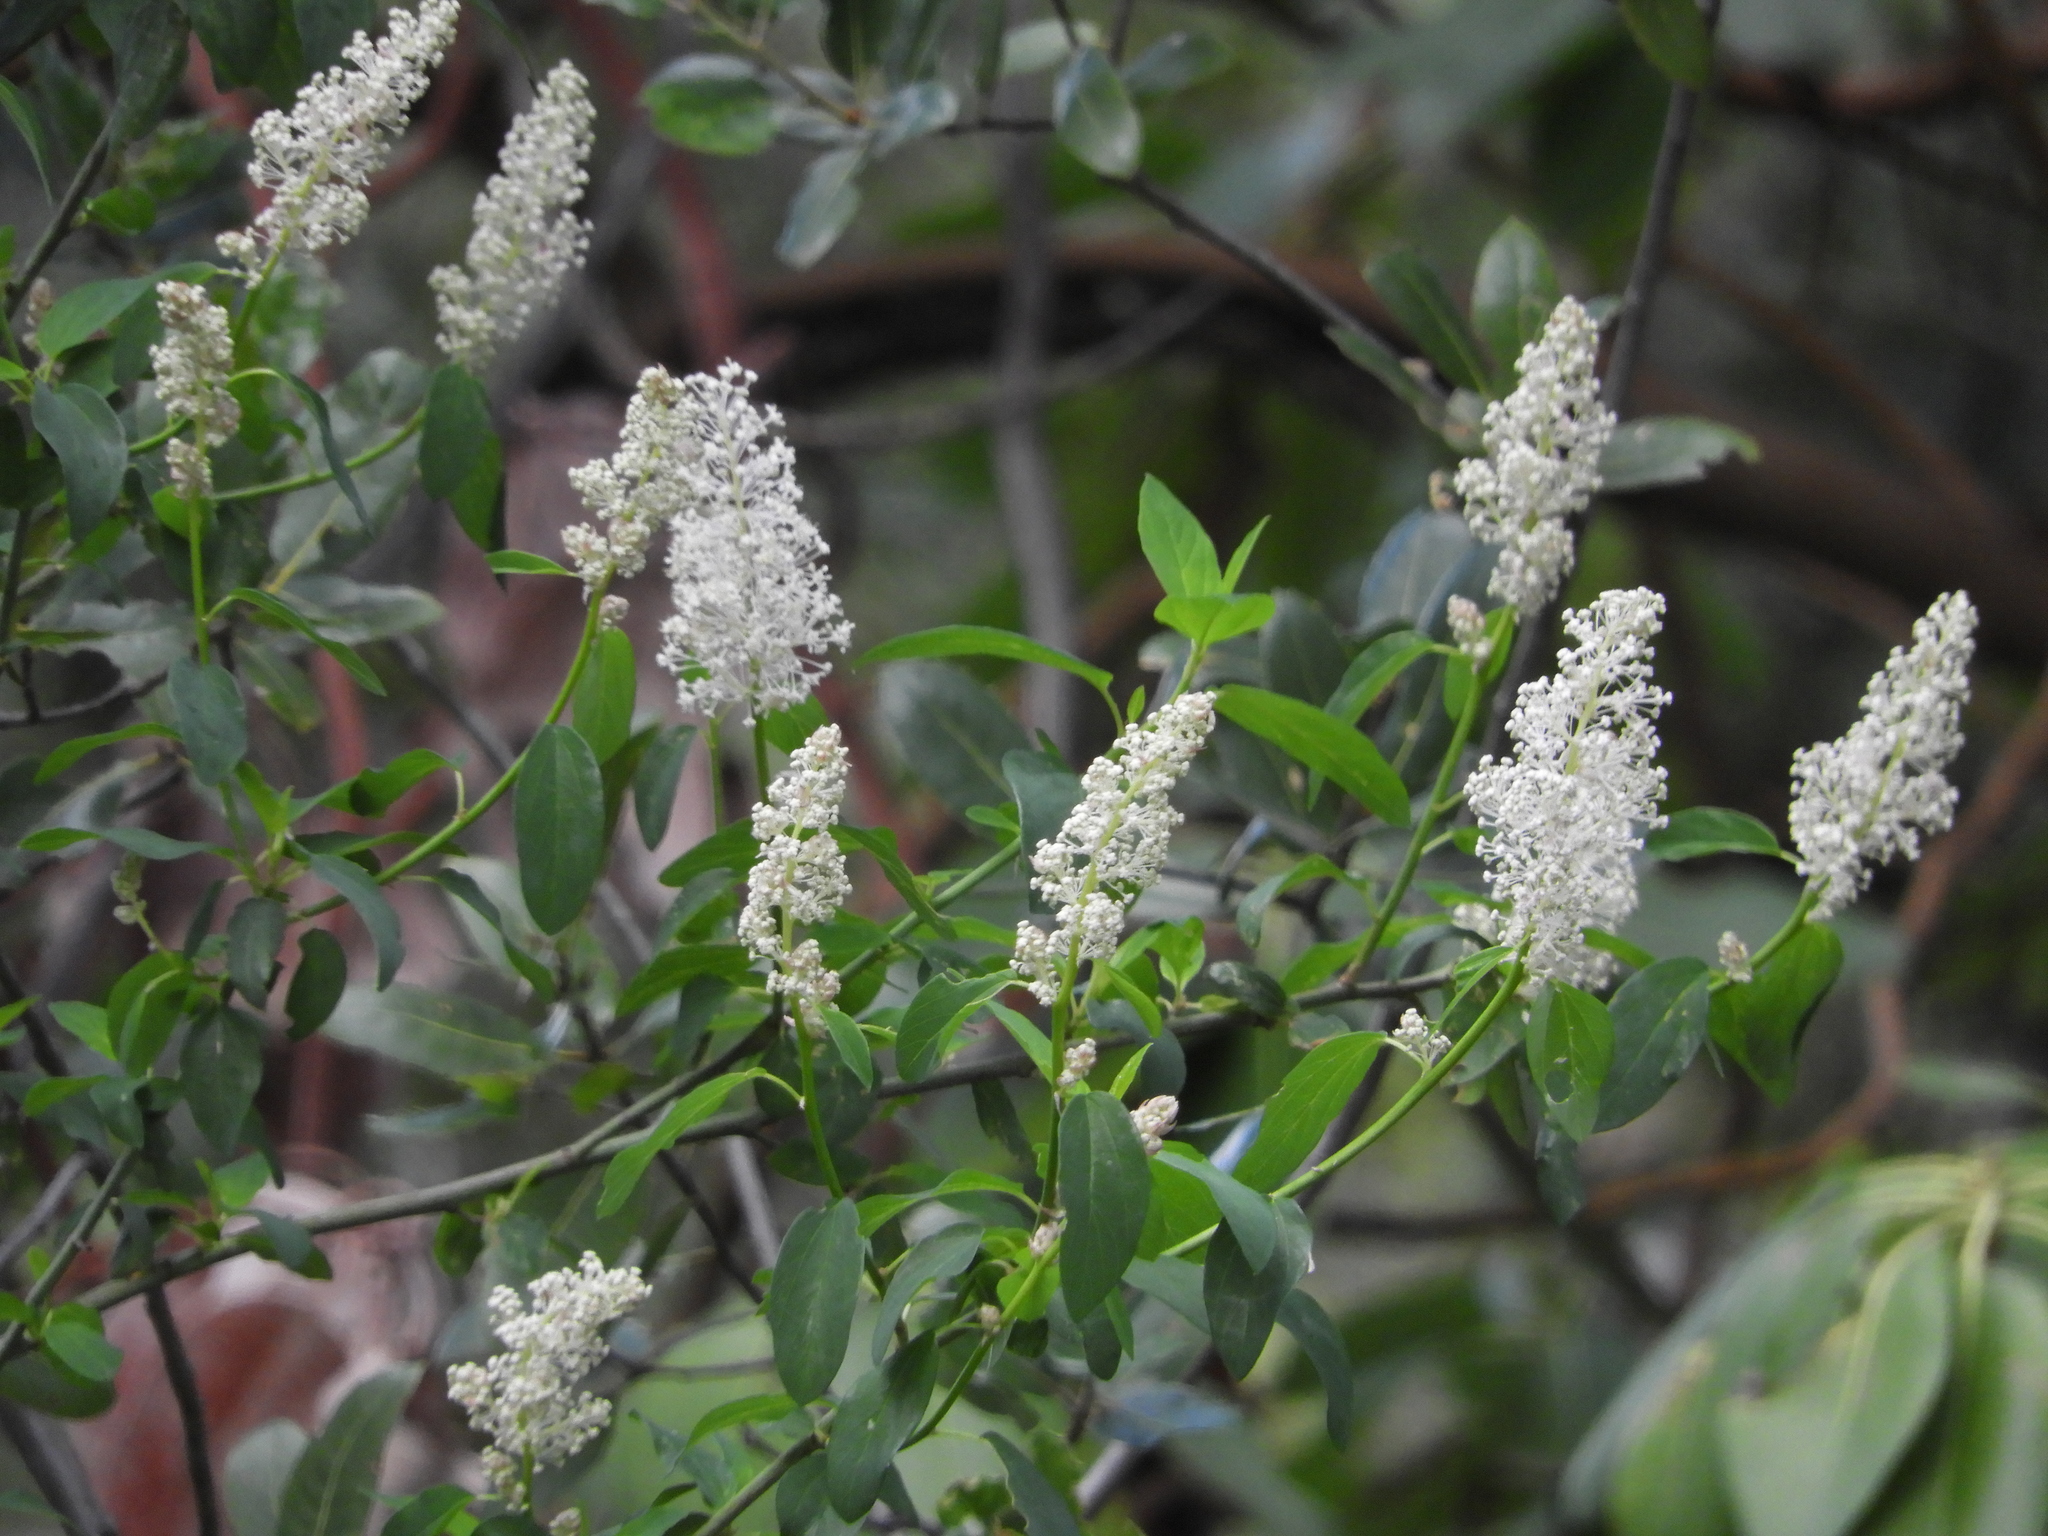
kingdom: Plantae
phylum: Tracheophyta
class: Magnoliopsida
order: Rosales
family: Rhamnaceae
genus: Ceanothus
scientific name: Ceanothus integerrimus
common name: Deerbrush ceanothus
